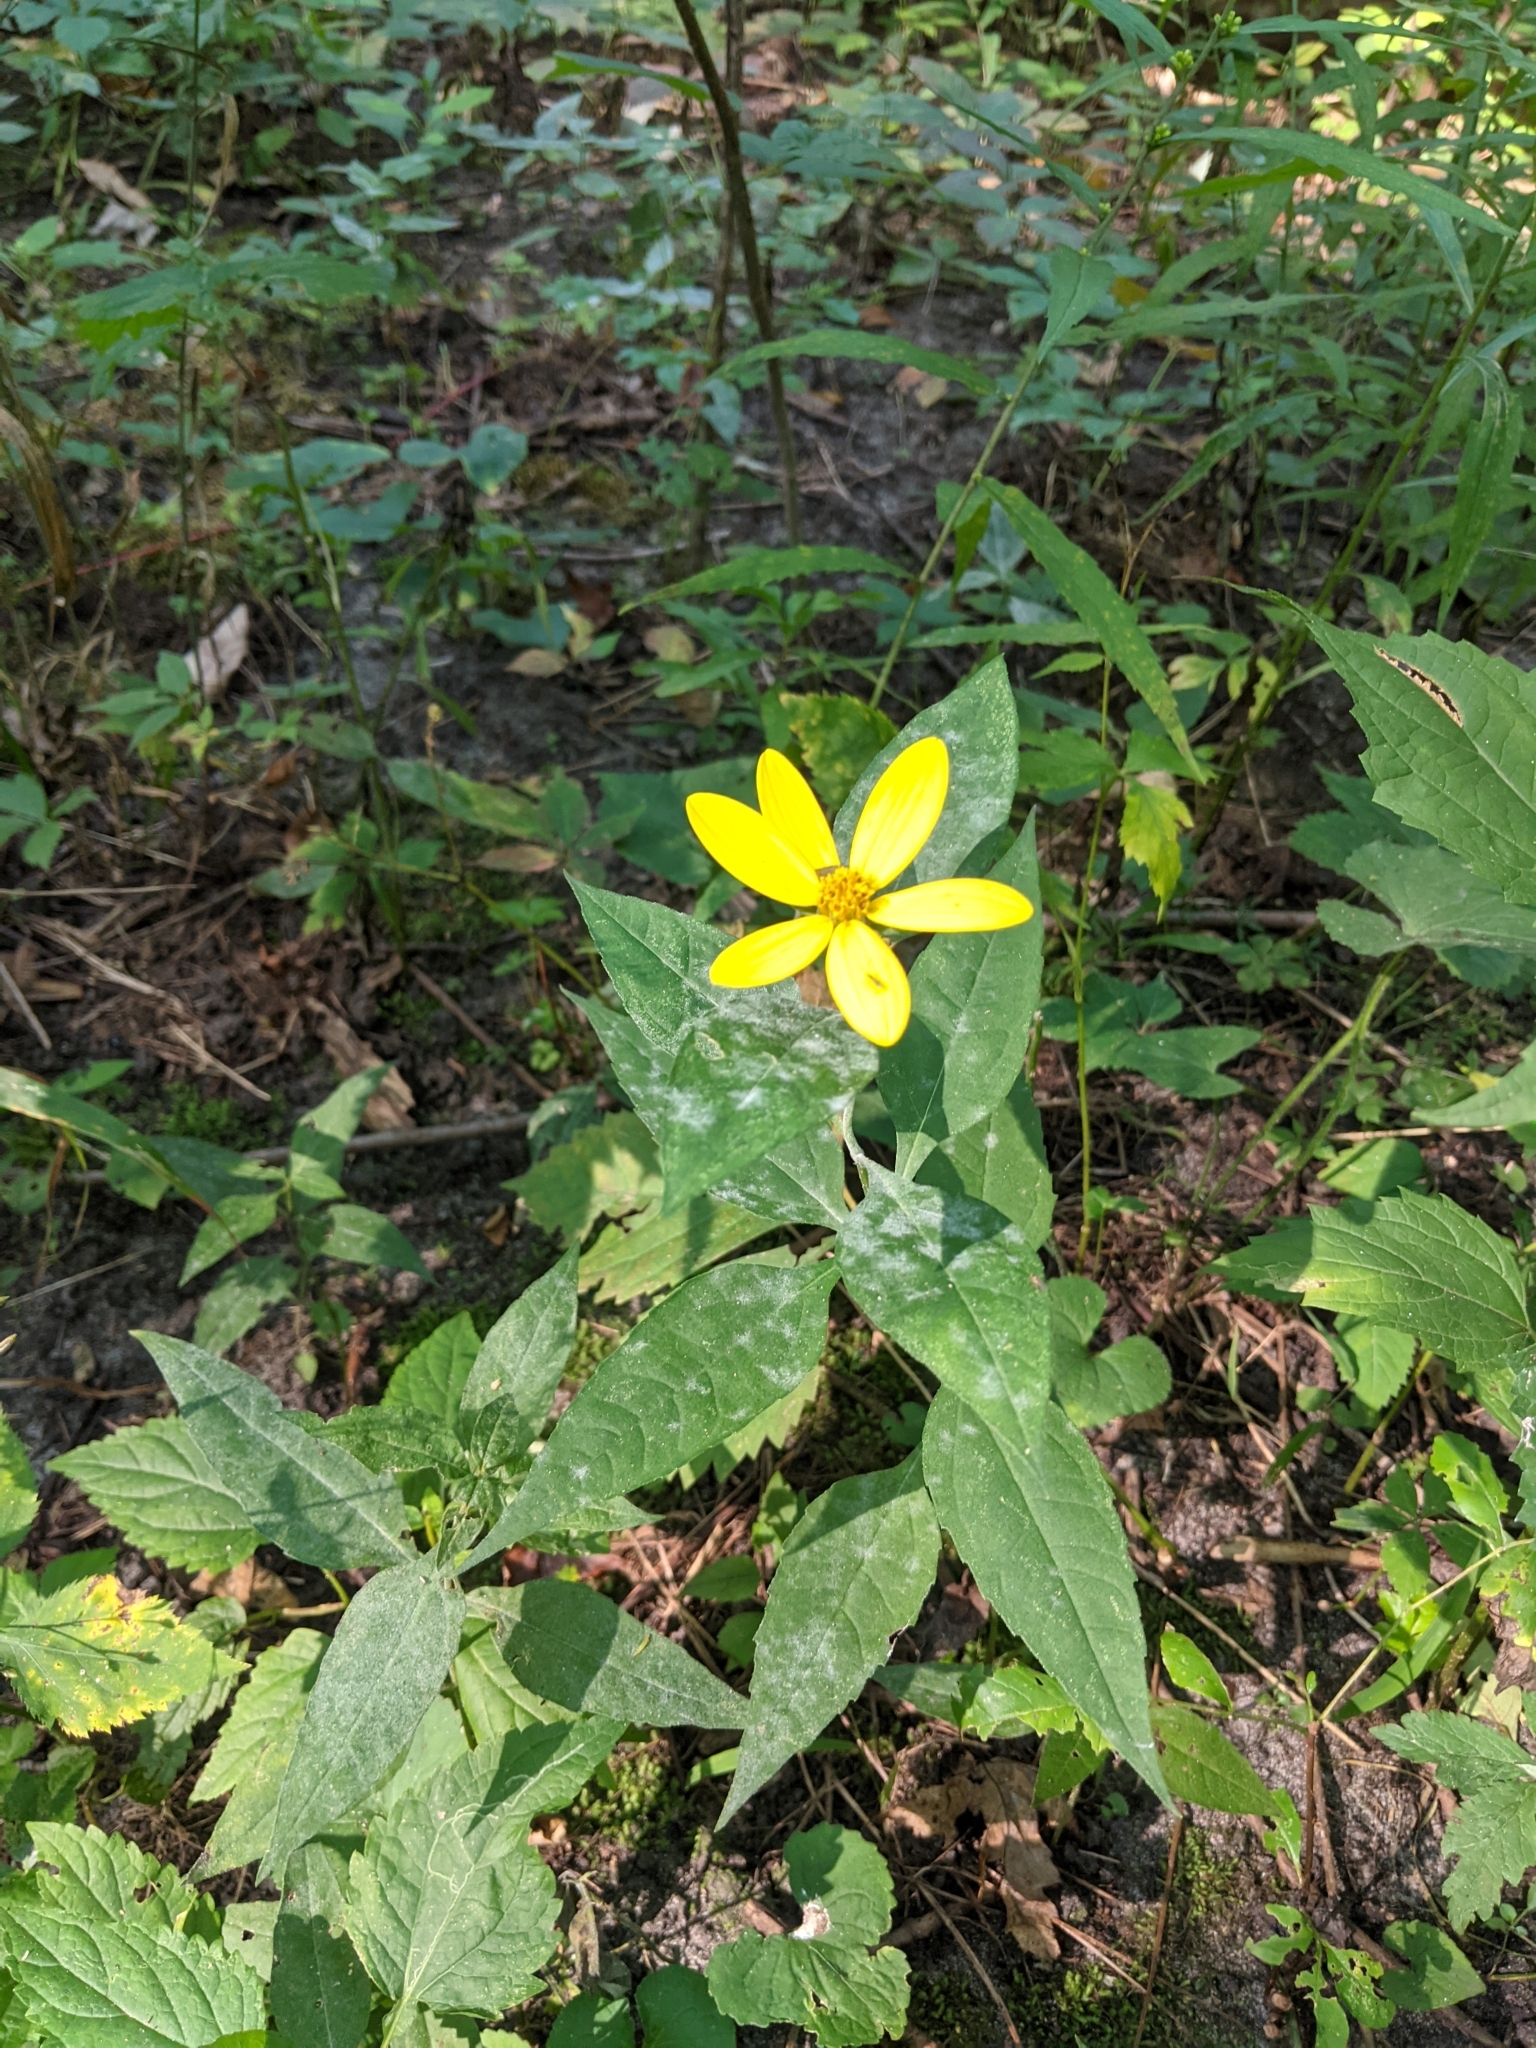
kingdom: Plantae
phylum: Tracheophyta
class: Magnoliopsida
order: Asterales
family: Asteraceae
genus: Helianthus
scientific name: Helianthus decapetalus
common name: Thin-leaved sunflower
